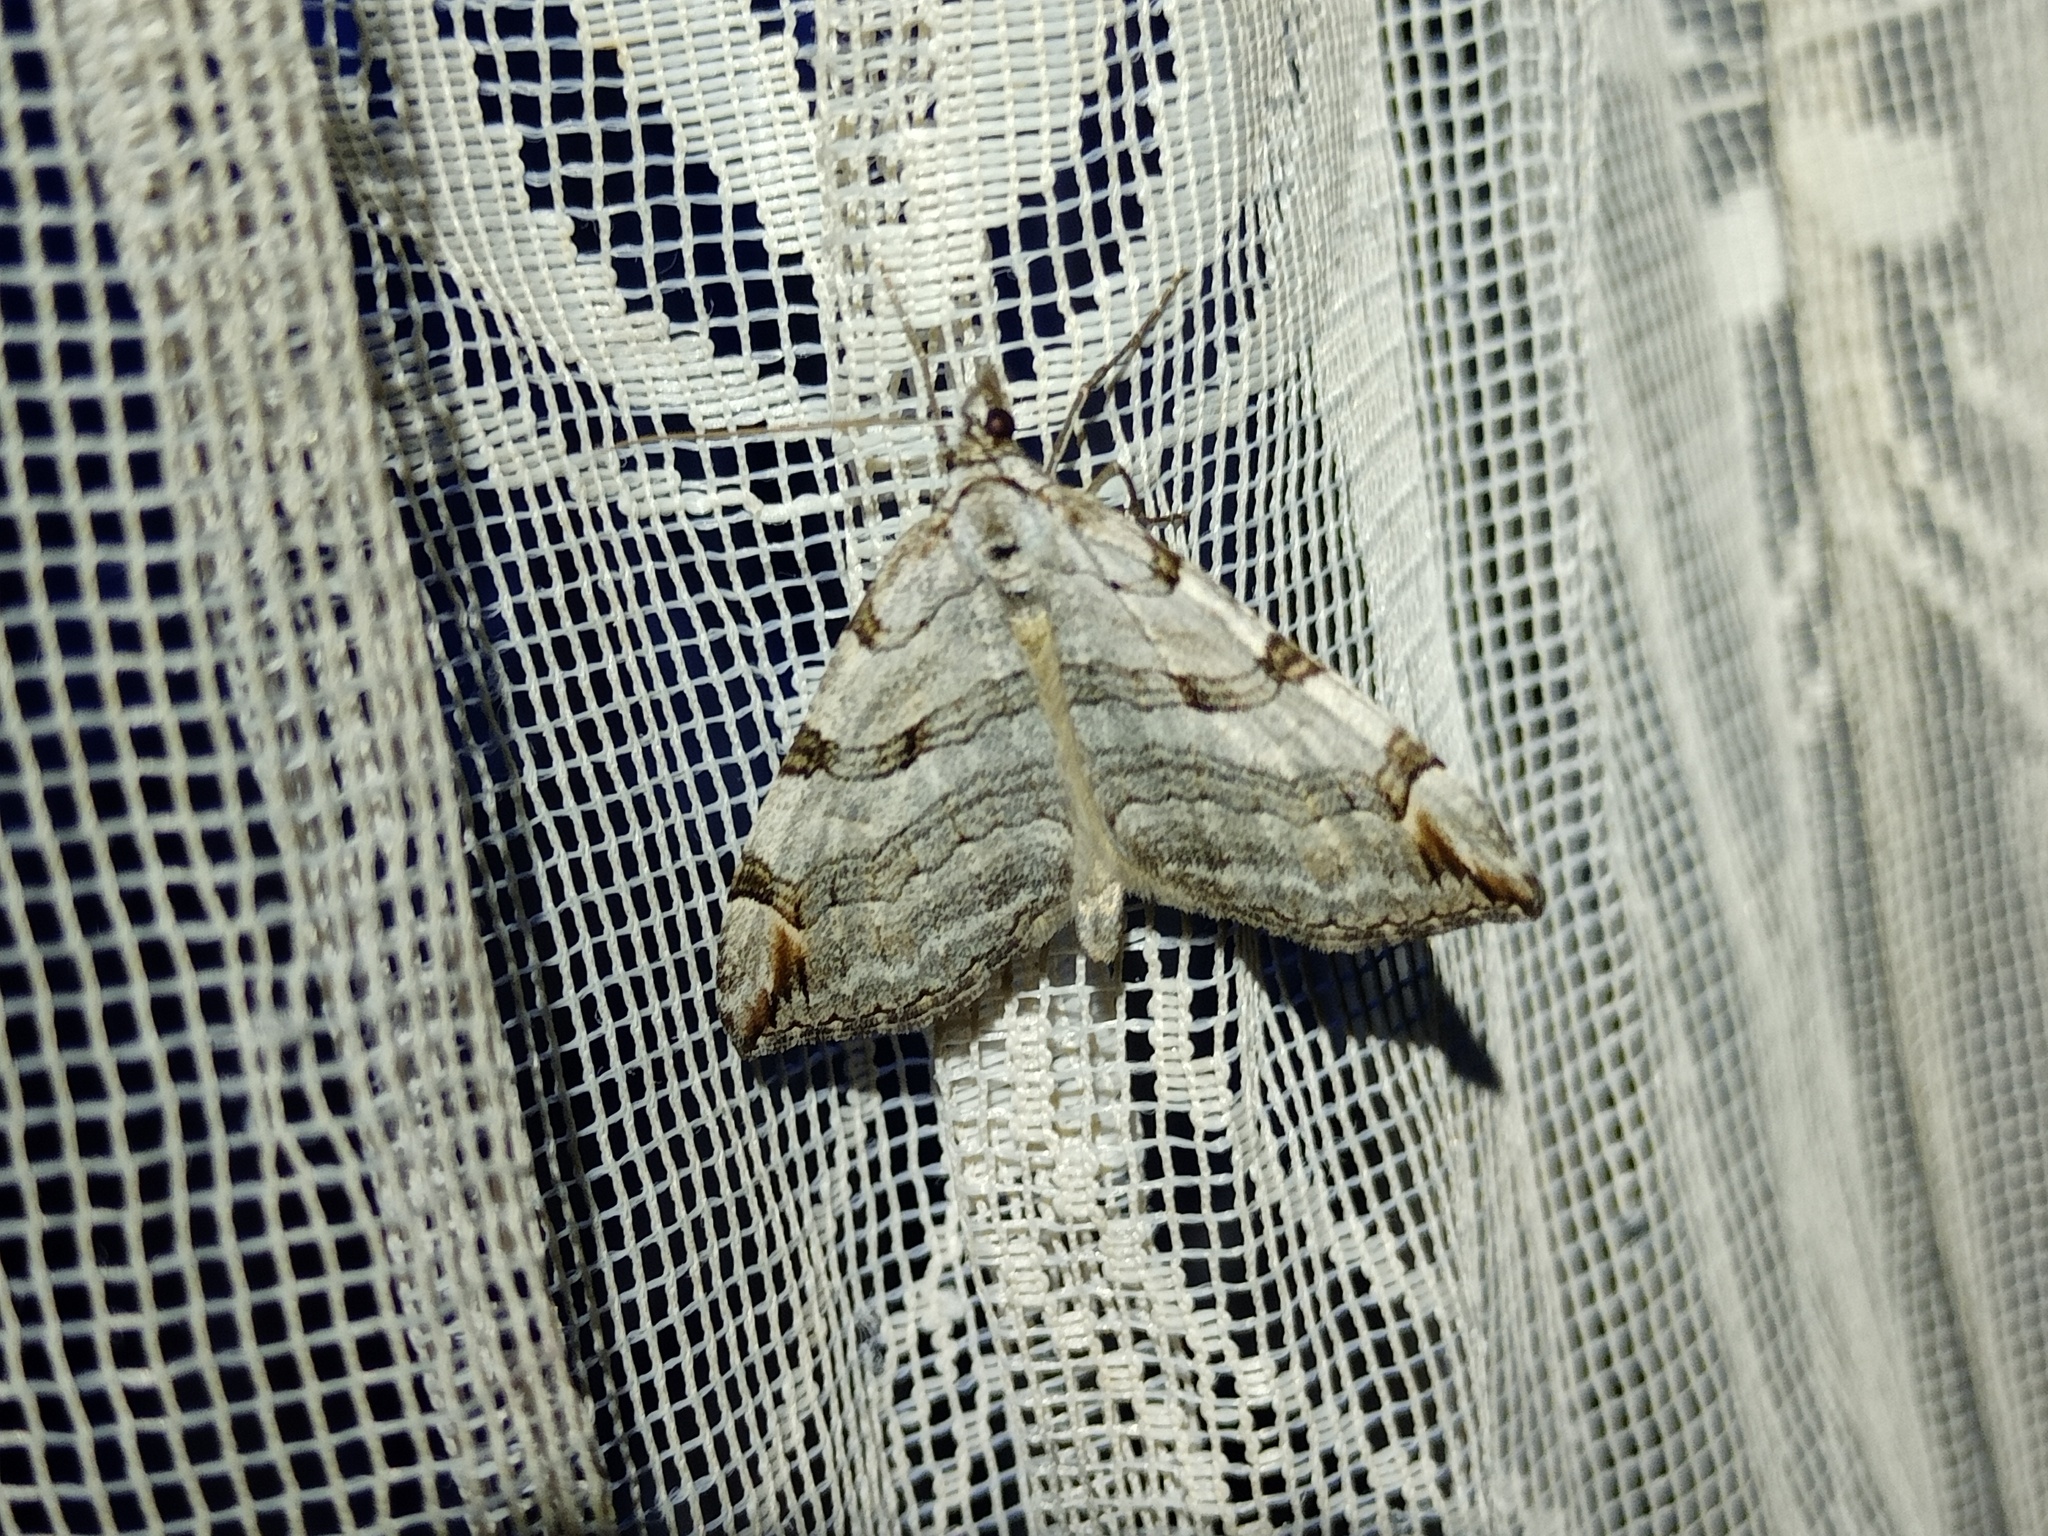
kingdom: Animalia
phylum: Arthropoda
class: Insecta
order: Lepidoptera
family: Geometridae
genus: Aplocera
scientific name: Aplocera plagiata
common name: Treble-bar
